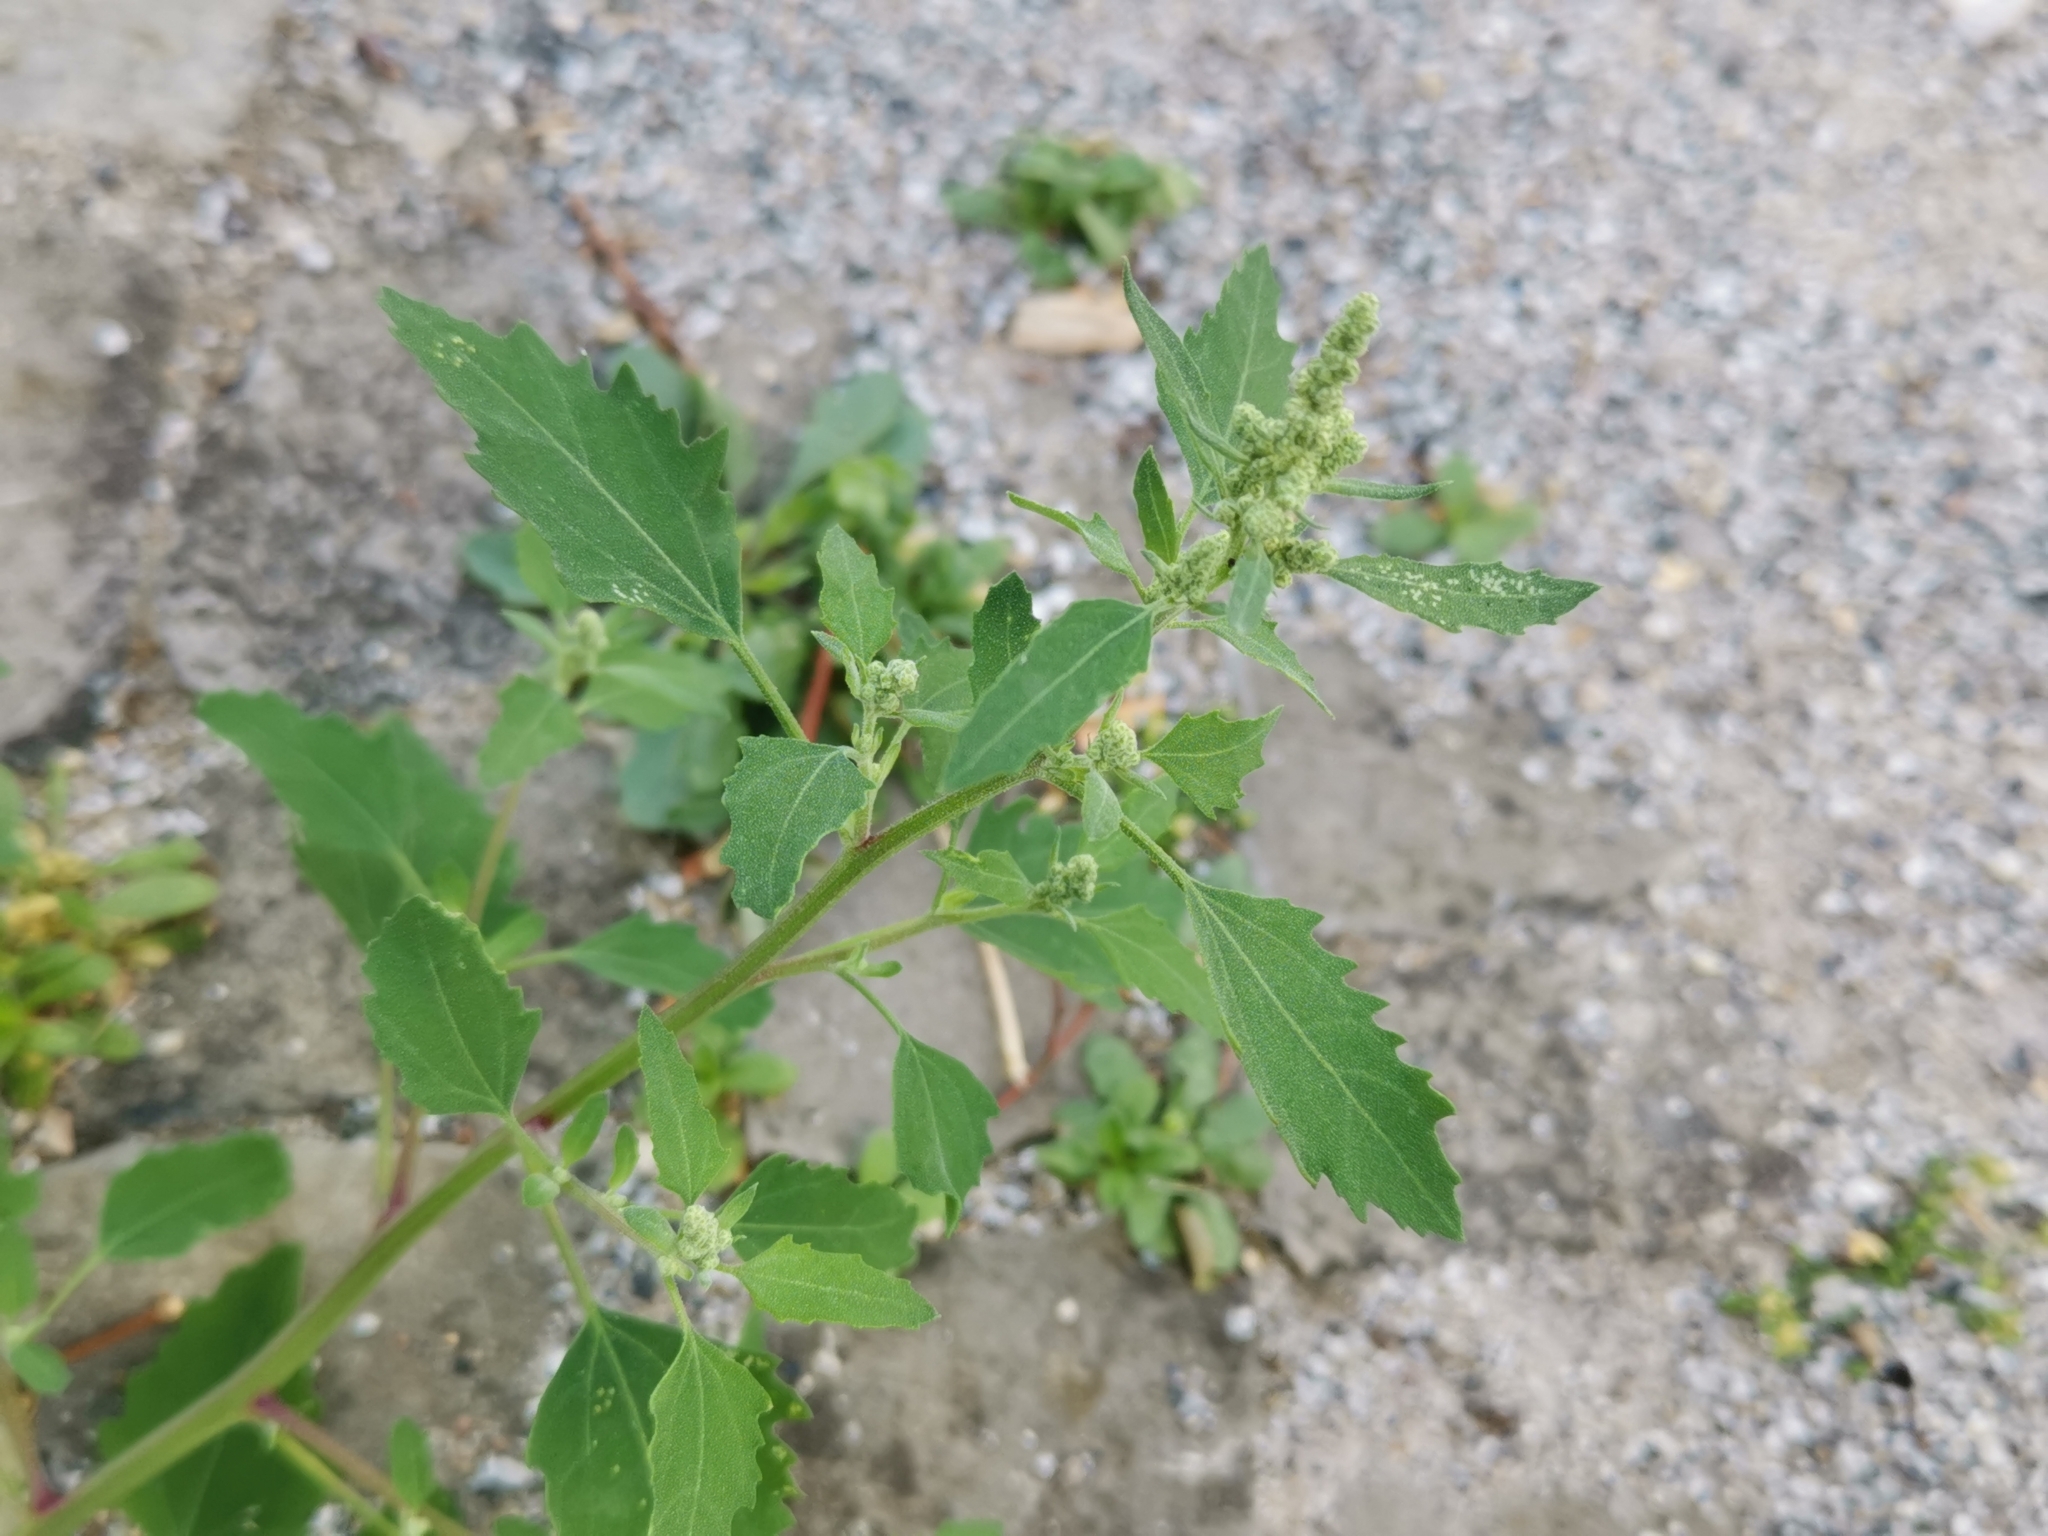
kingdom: Plantae
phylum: Tracheophyta
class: Magnoliopsida
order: Caryophyllales
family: Amaranthaceae
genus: Chenopodium
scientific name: Chenopodium album
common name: Fat-hen
